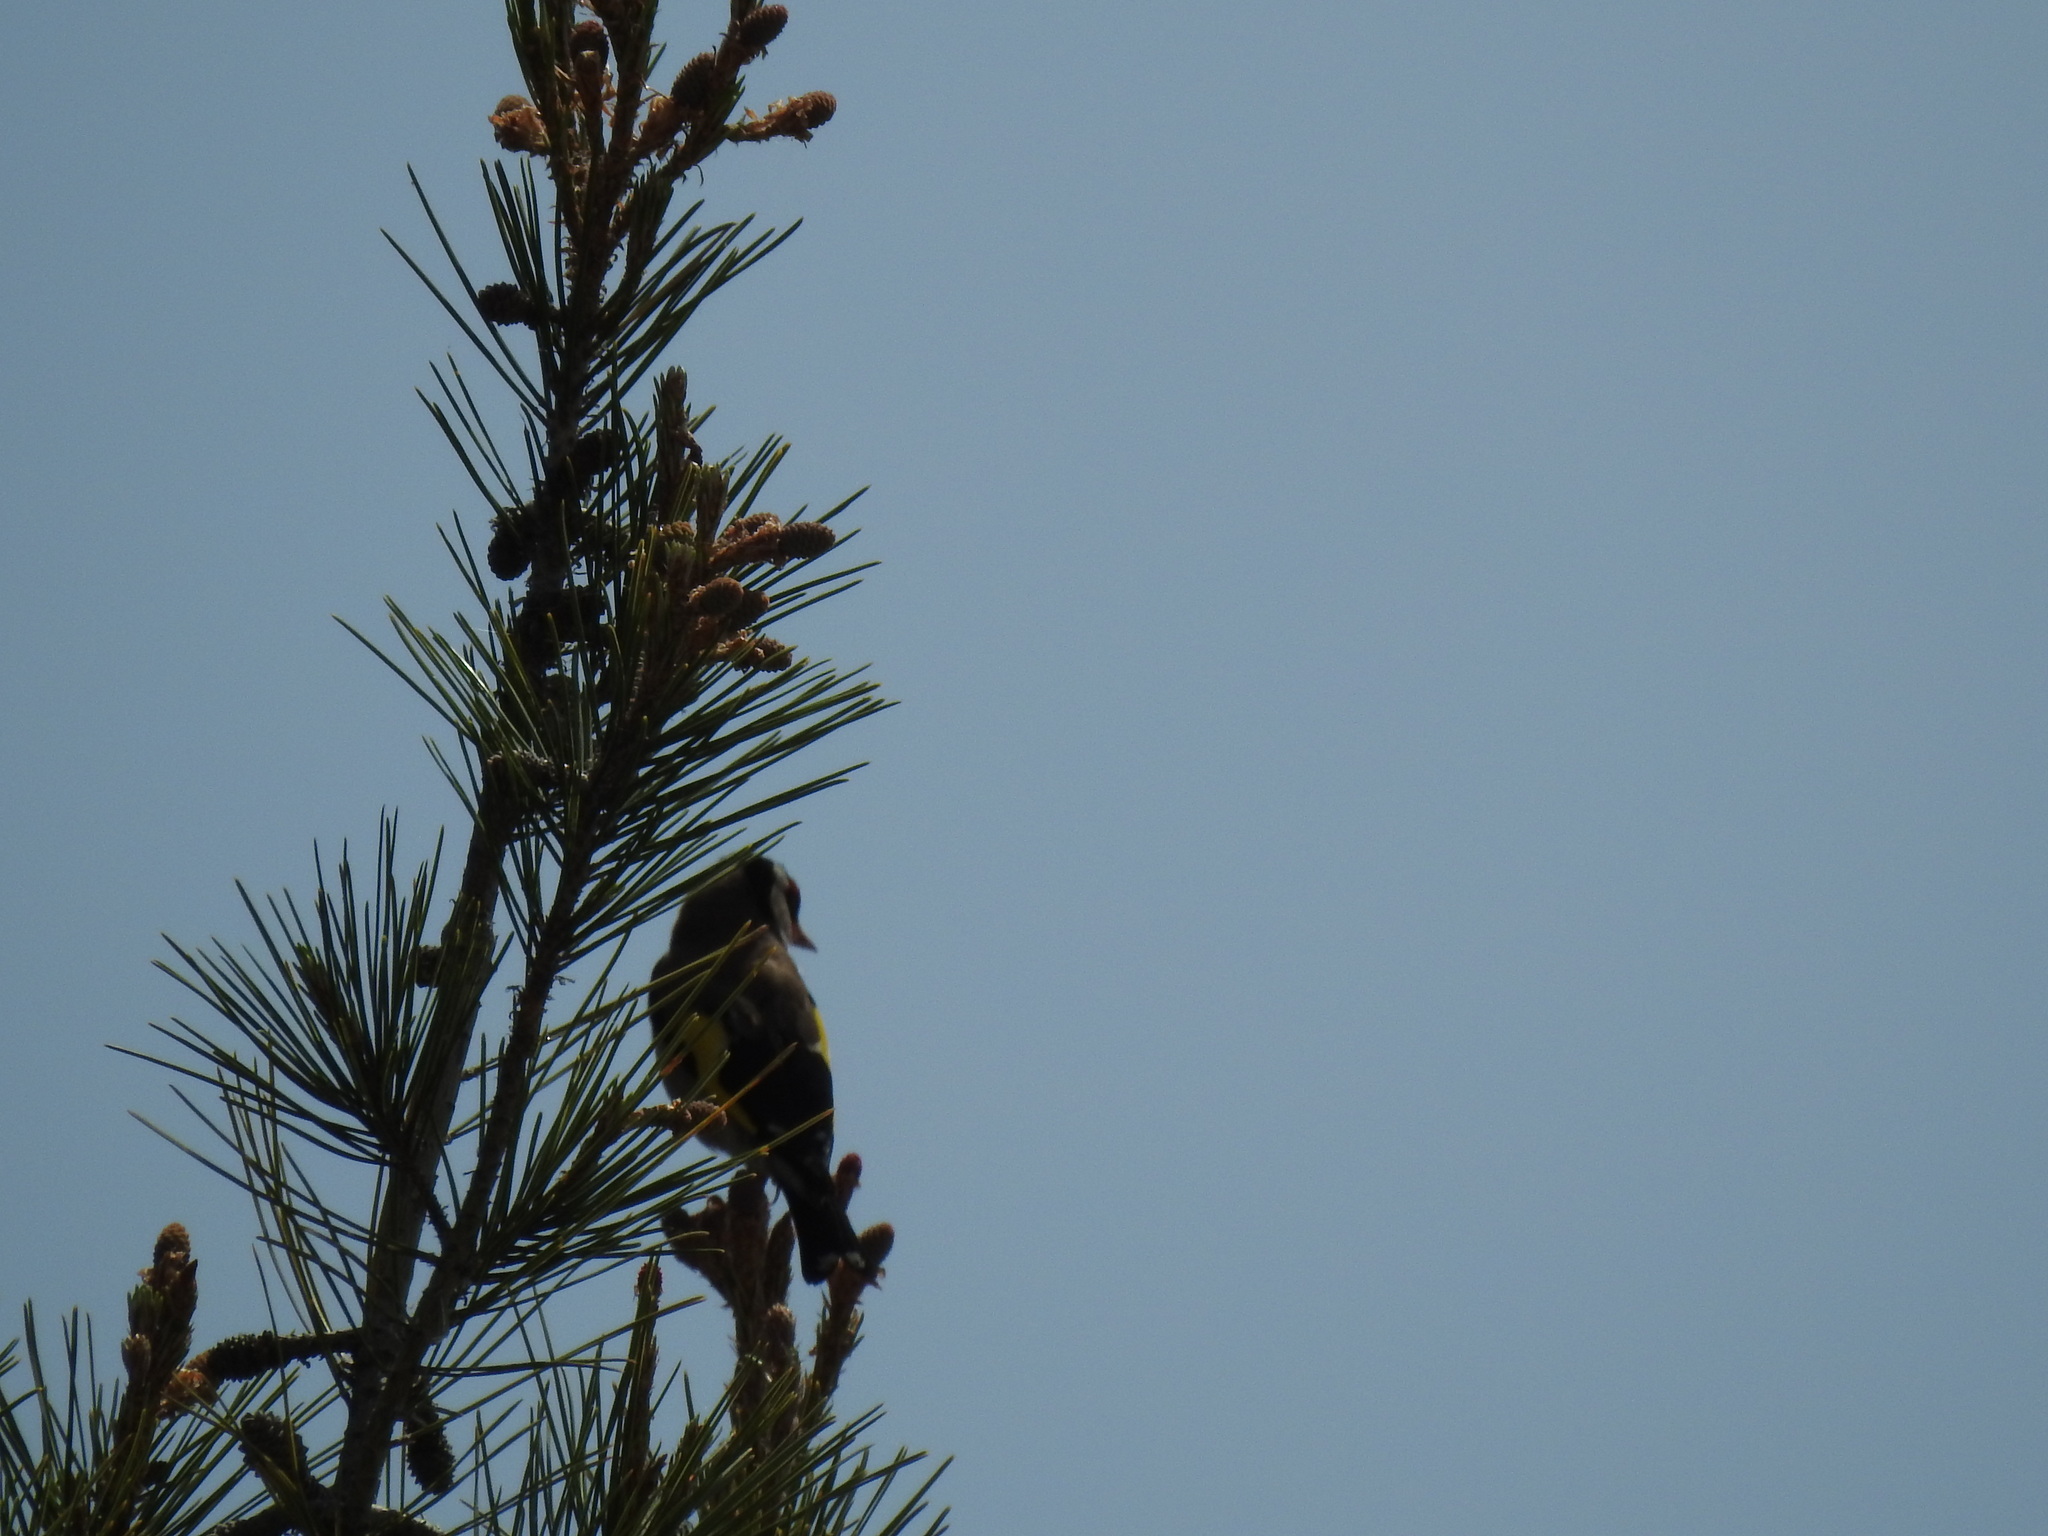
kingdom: Animalia
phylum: Chordata
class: Aves
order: Passeriformes
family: Fringillidae
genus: Carduelis
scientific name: Carduelis carduelis
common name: European goldfinch
